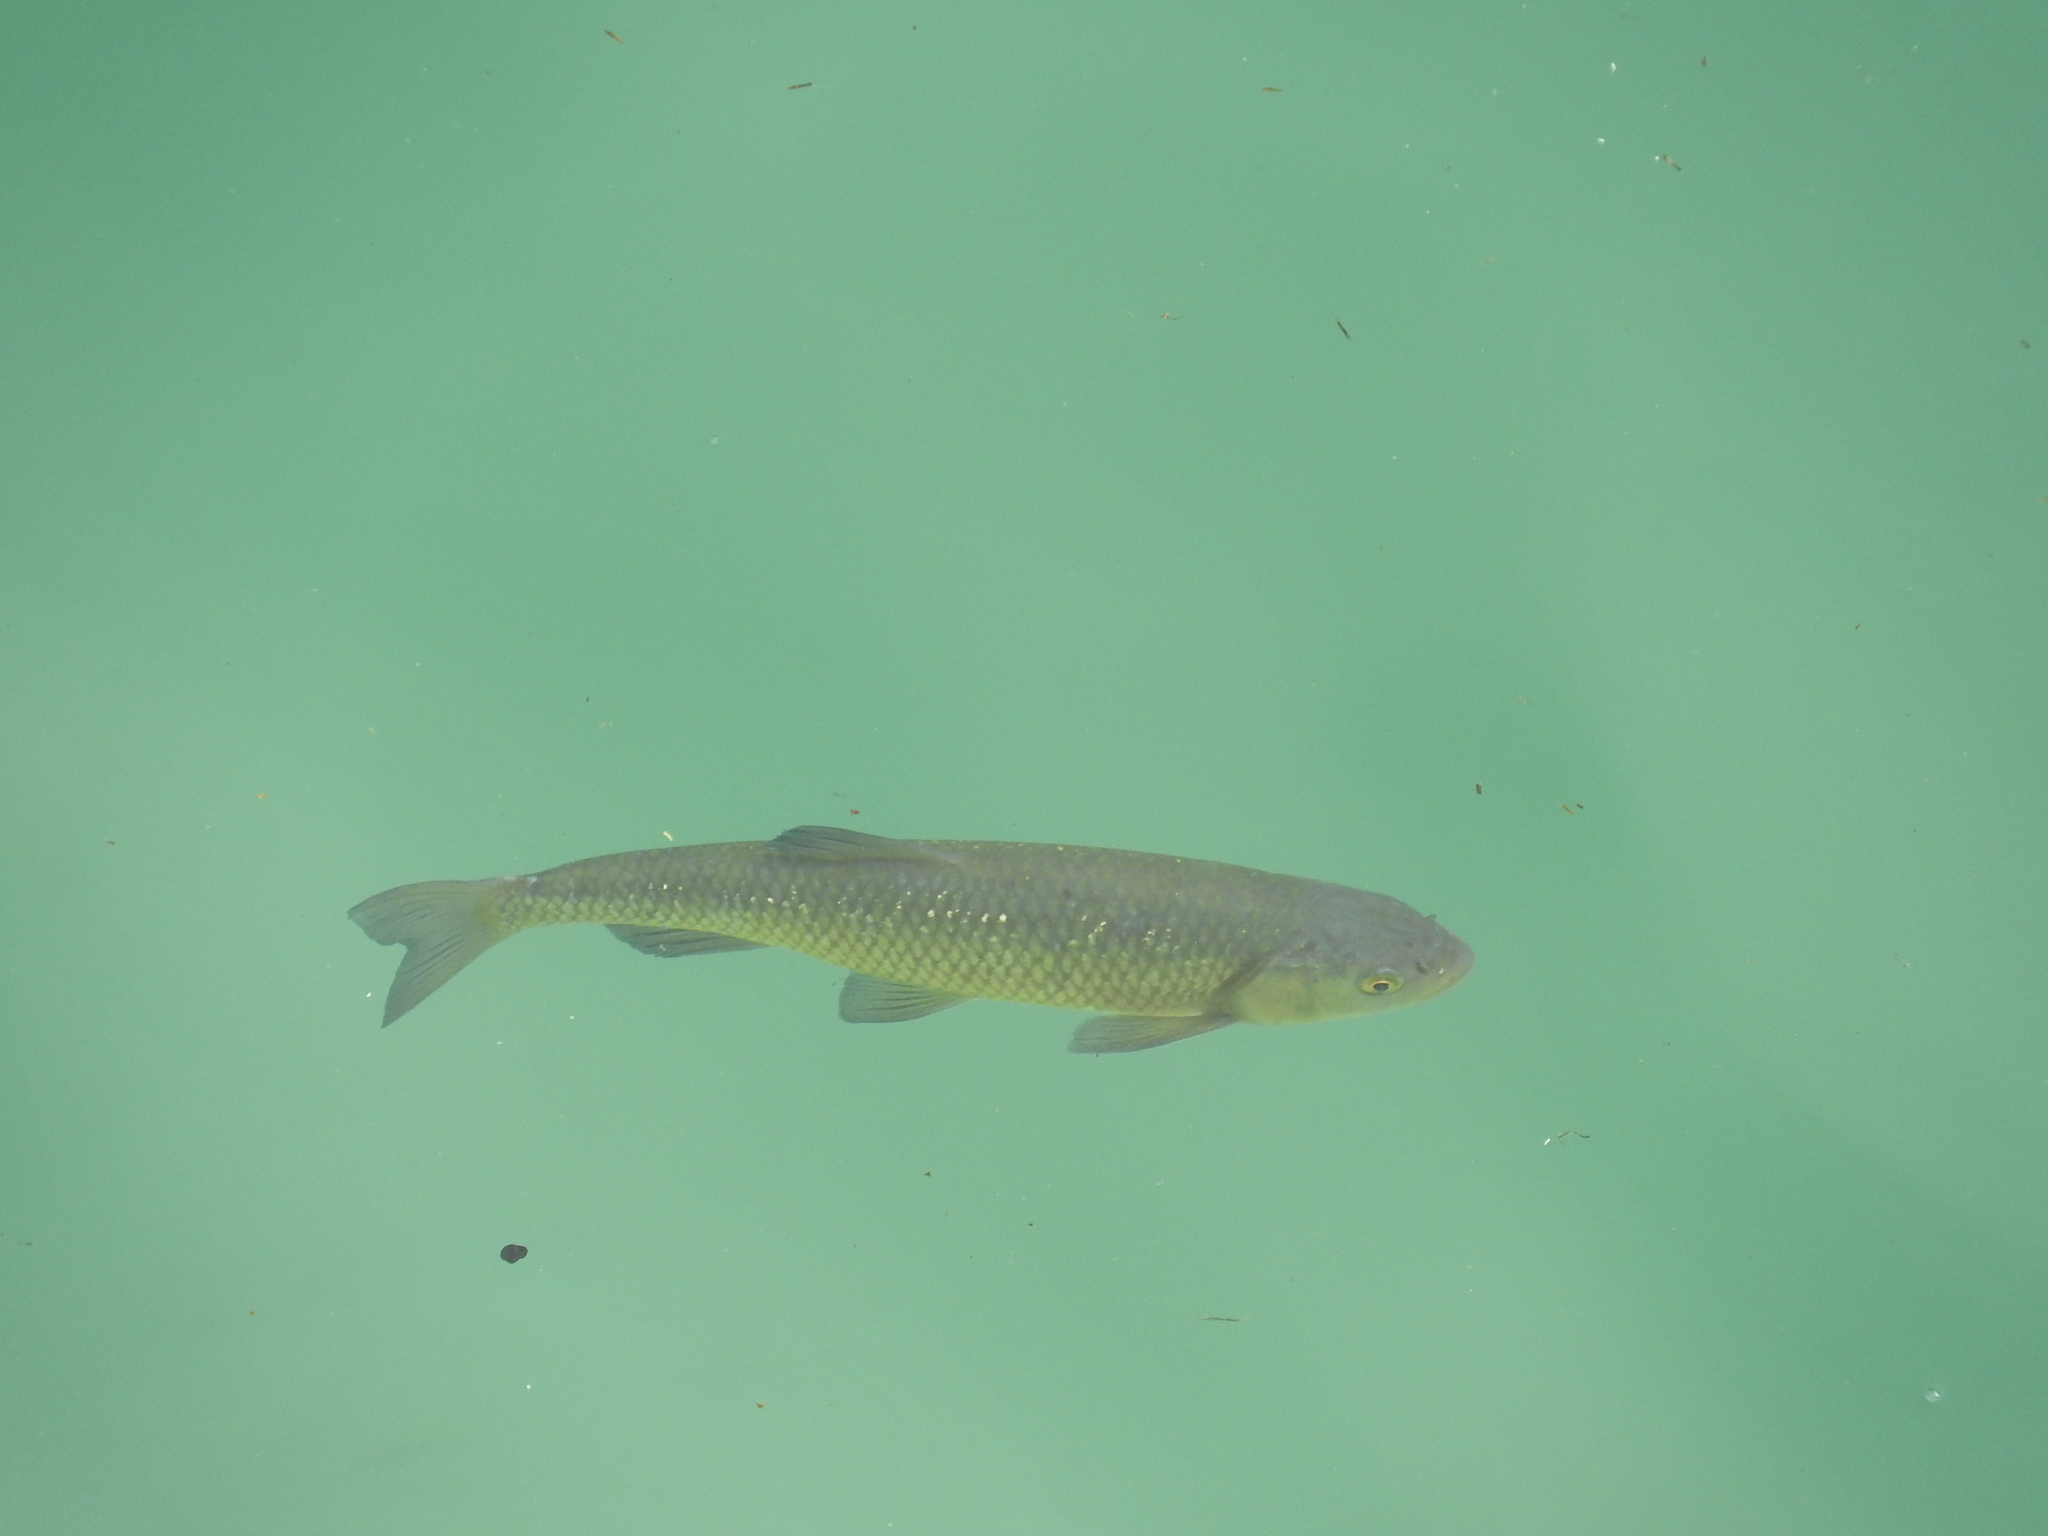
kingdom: Animalia
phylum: Chordata
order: Cypriniformes
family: Cyprinidae
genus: Squalius
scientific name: Squalius squalus
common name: Italian chub
